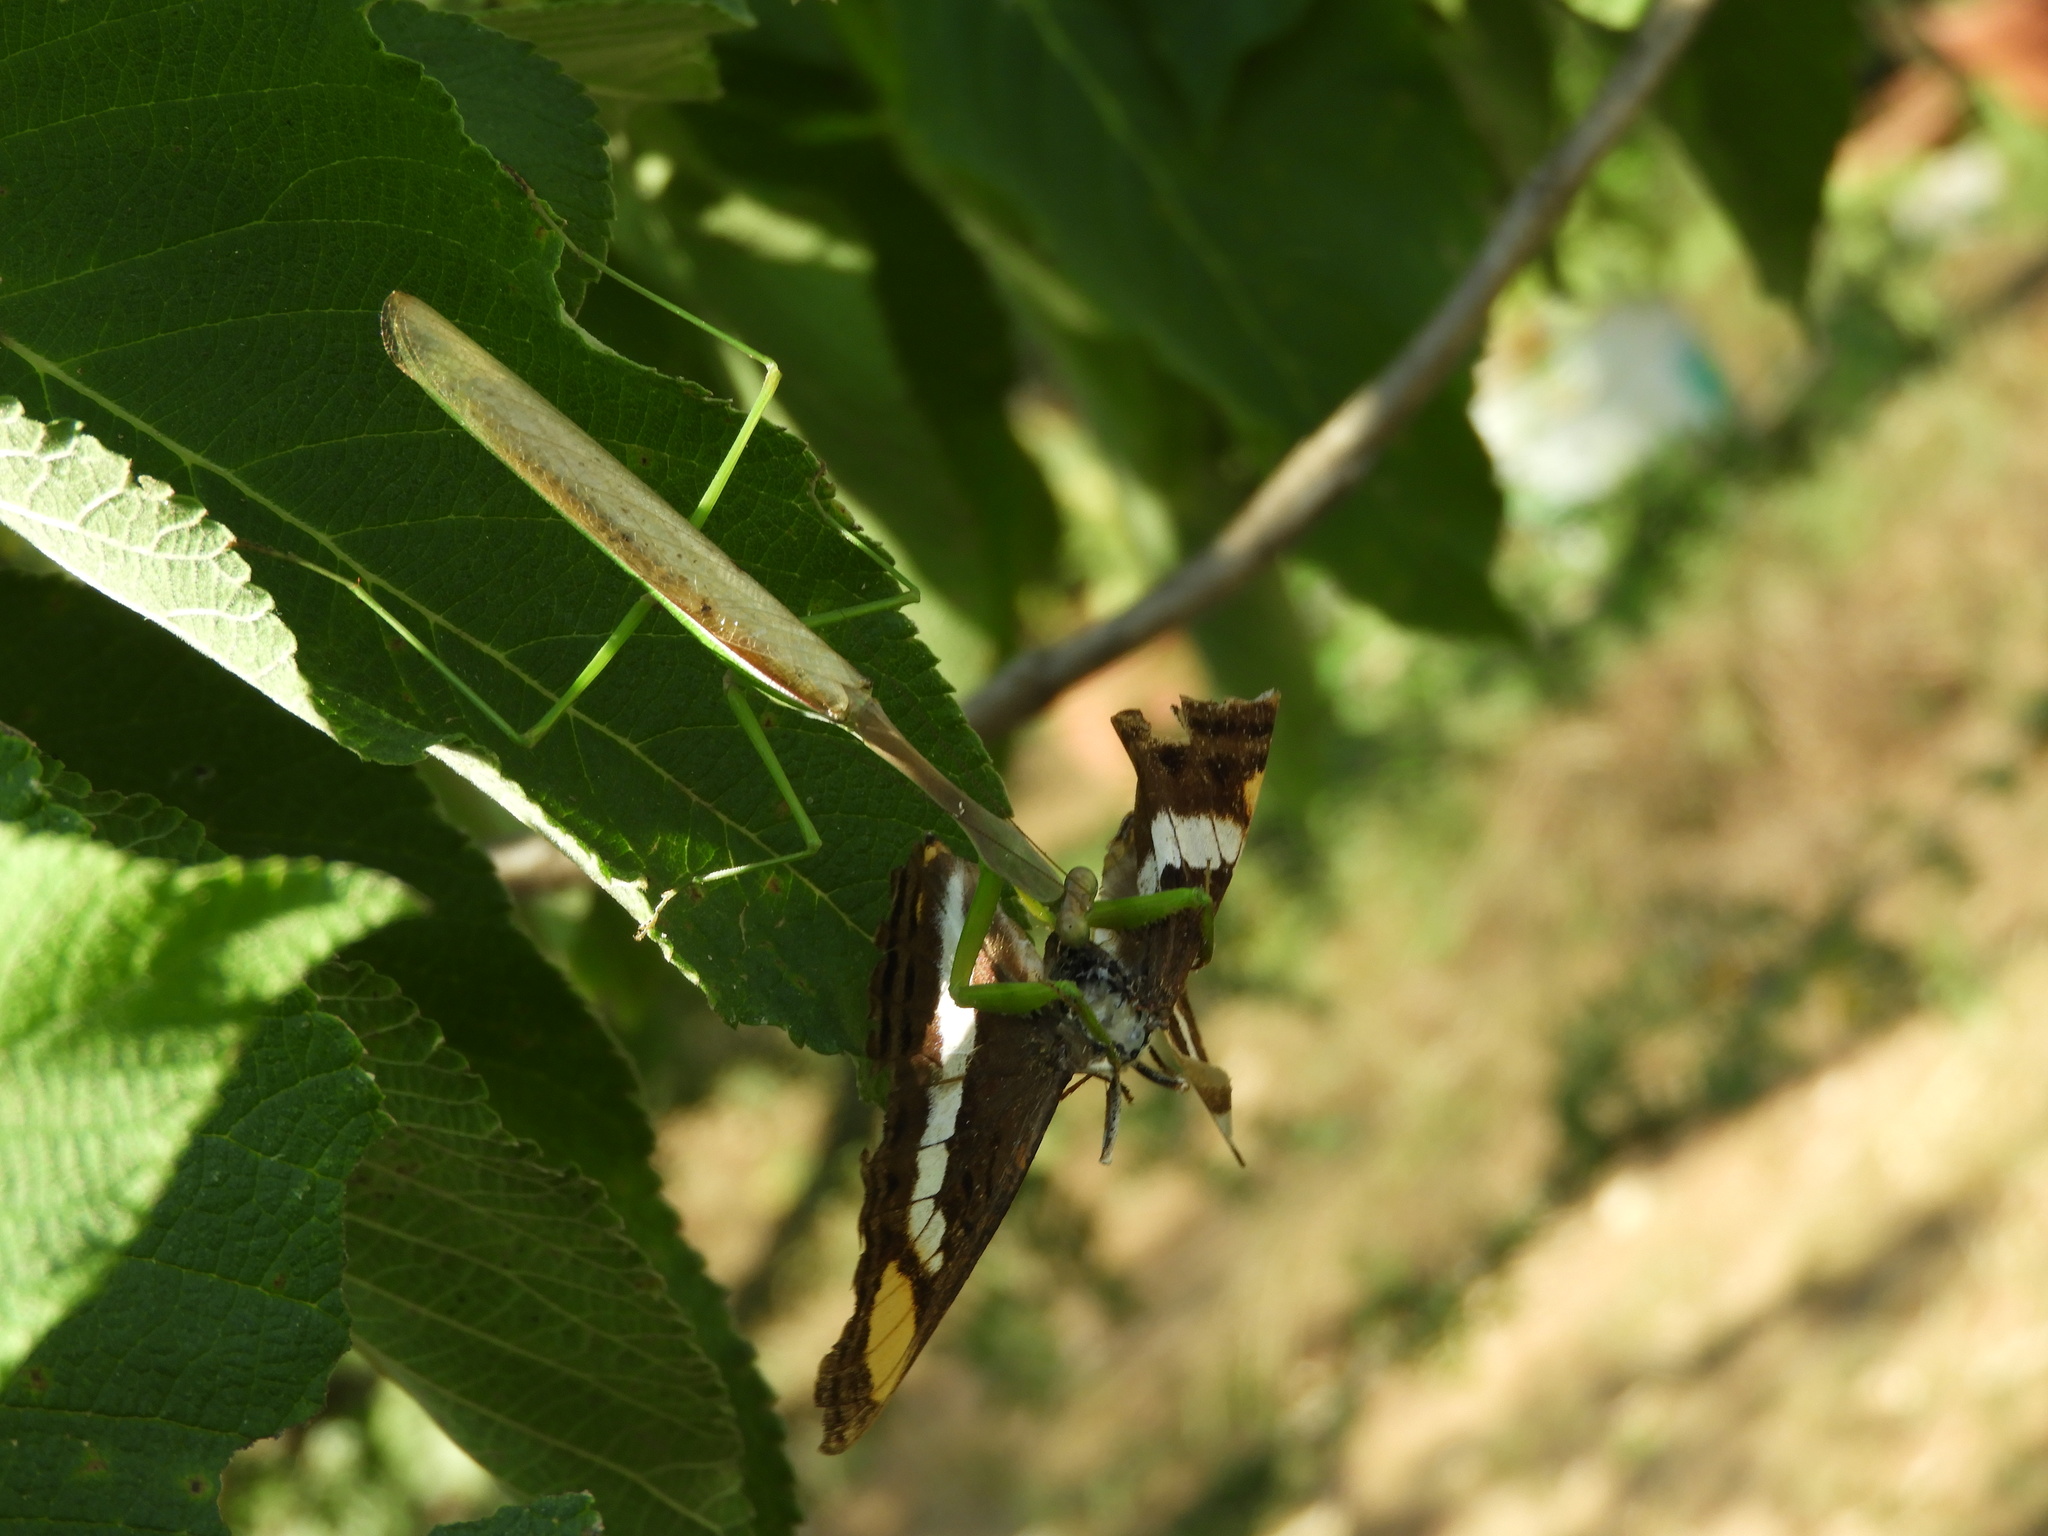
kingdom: Animalia
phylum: Arthropoda
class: Insecta
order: Lepidoptera
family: Nymphalidae
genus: Limenitis
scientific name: Limenitis
